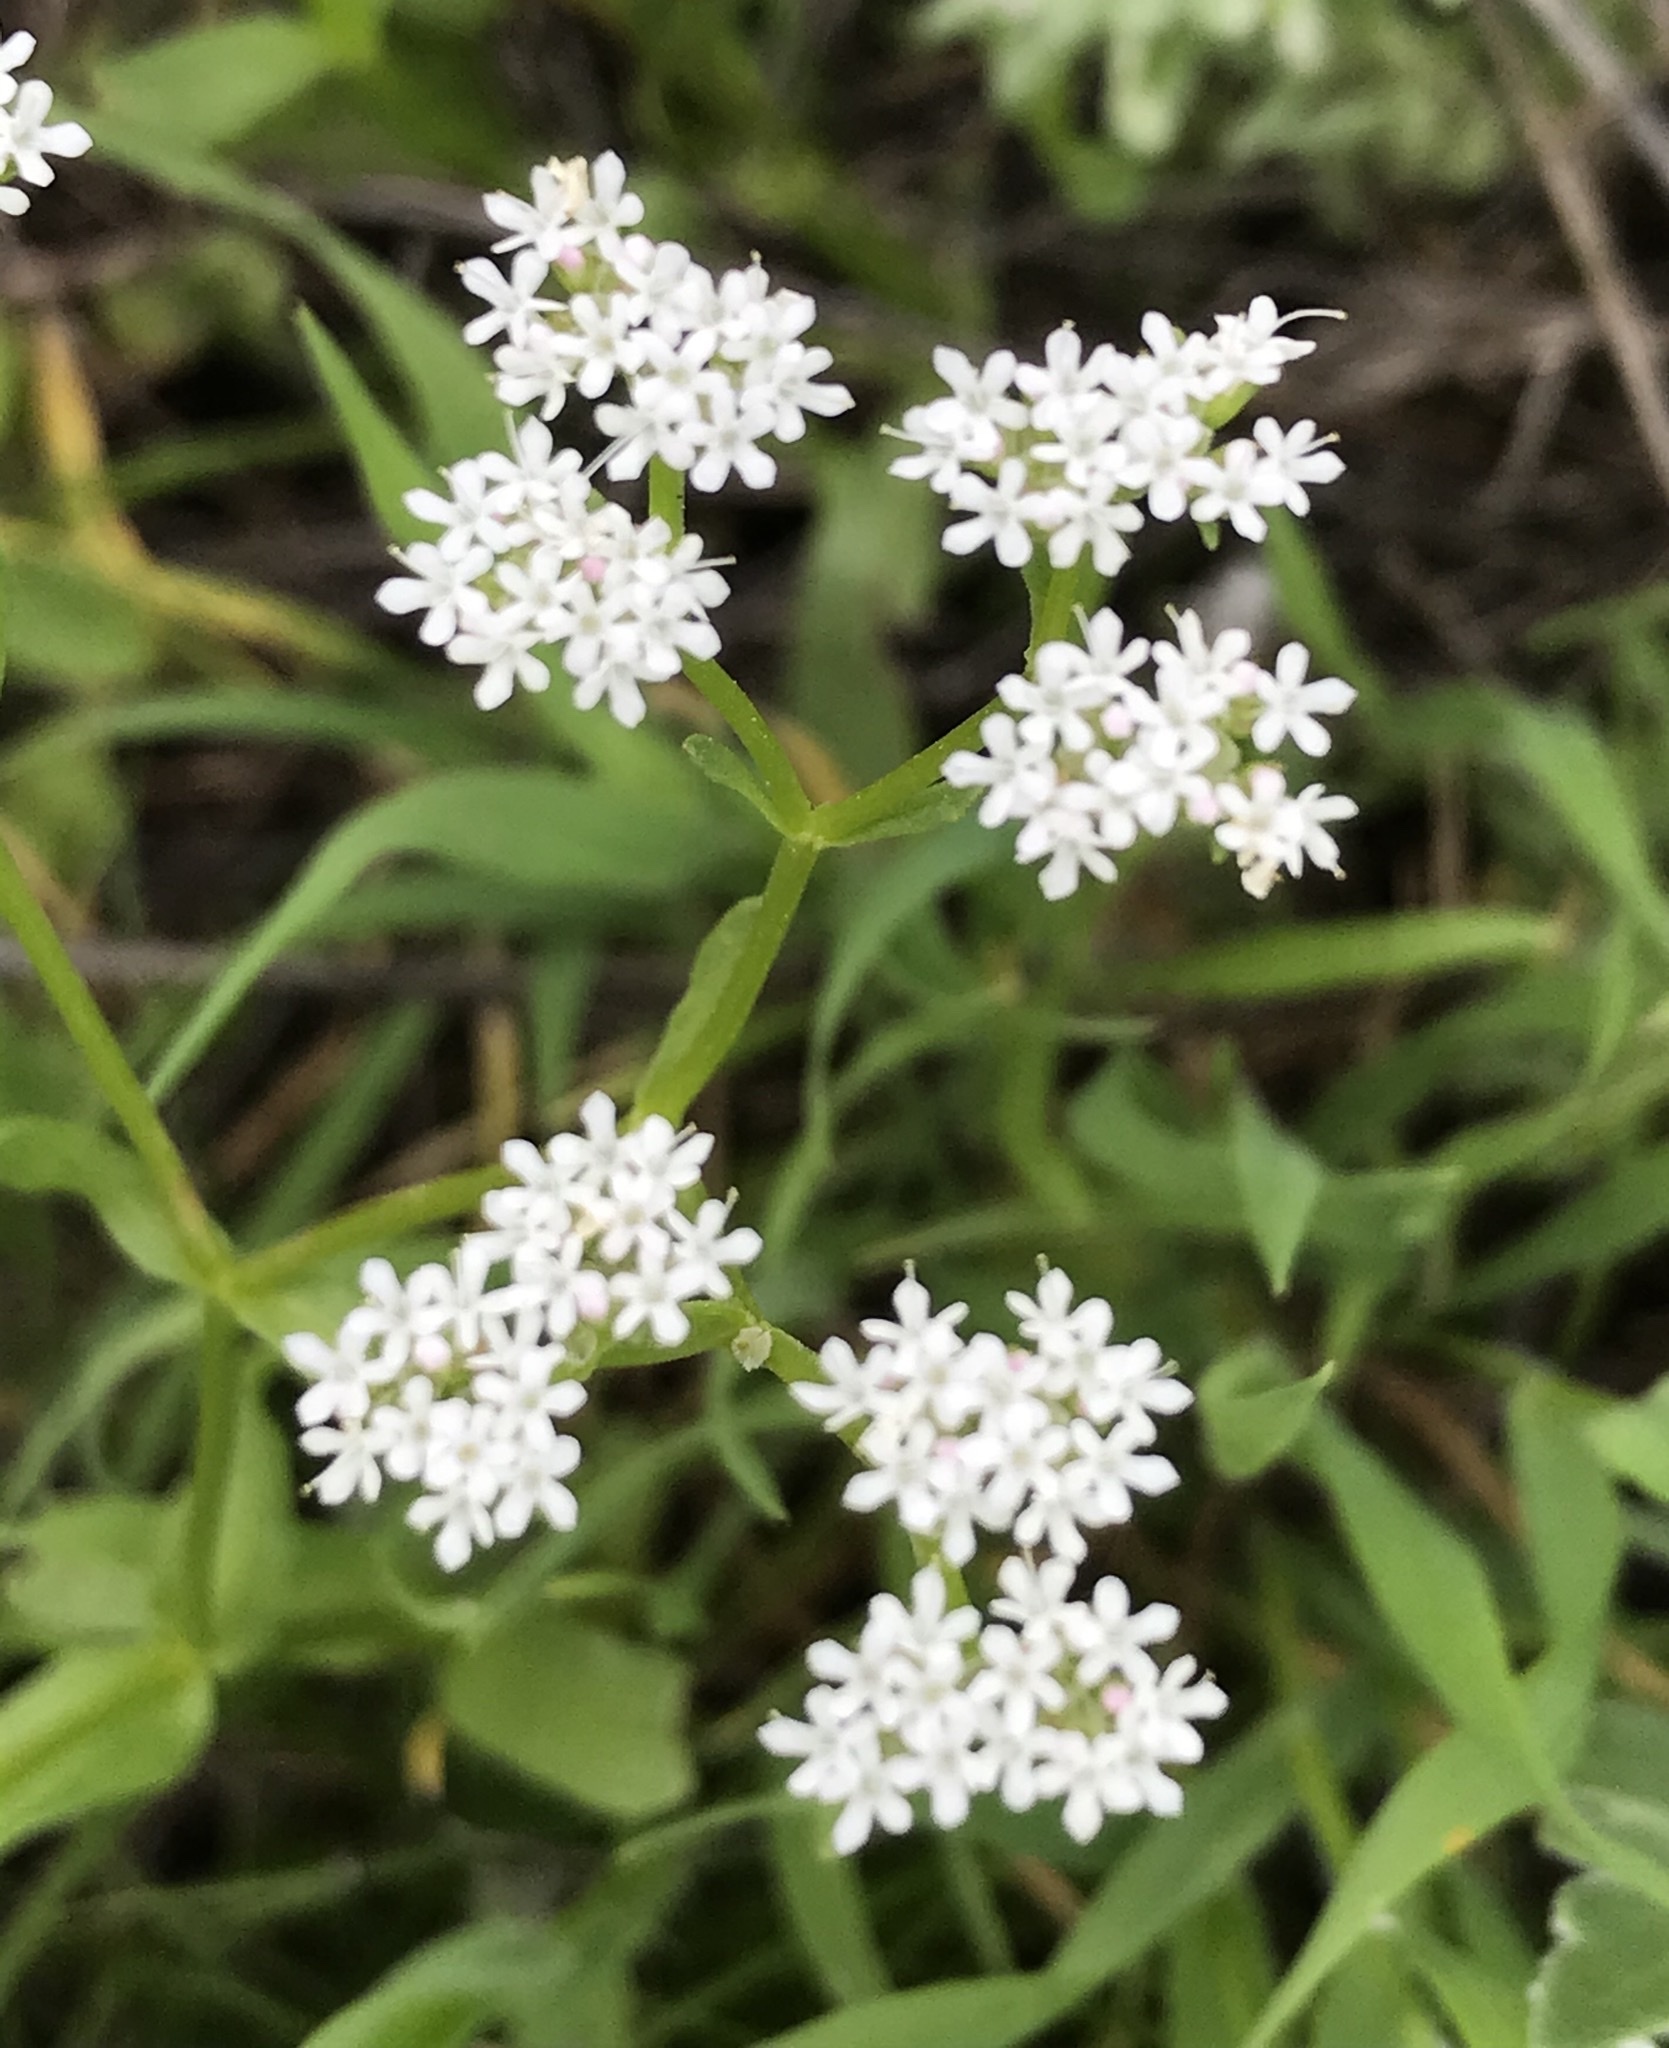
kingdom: Plantae
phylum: Tracheophyta
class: Magnoliopsida
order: Dipsacales
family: Caprifoliaceae
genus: Valerianella
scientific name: Valerianella amarella
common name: Hariy cornsalad
